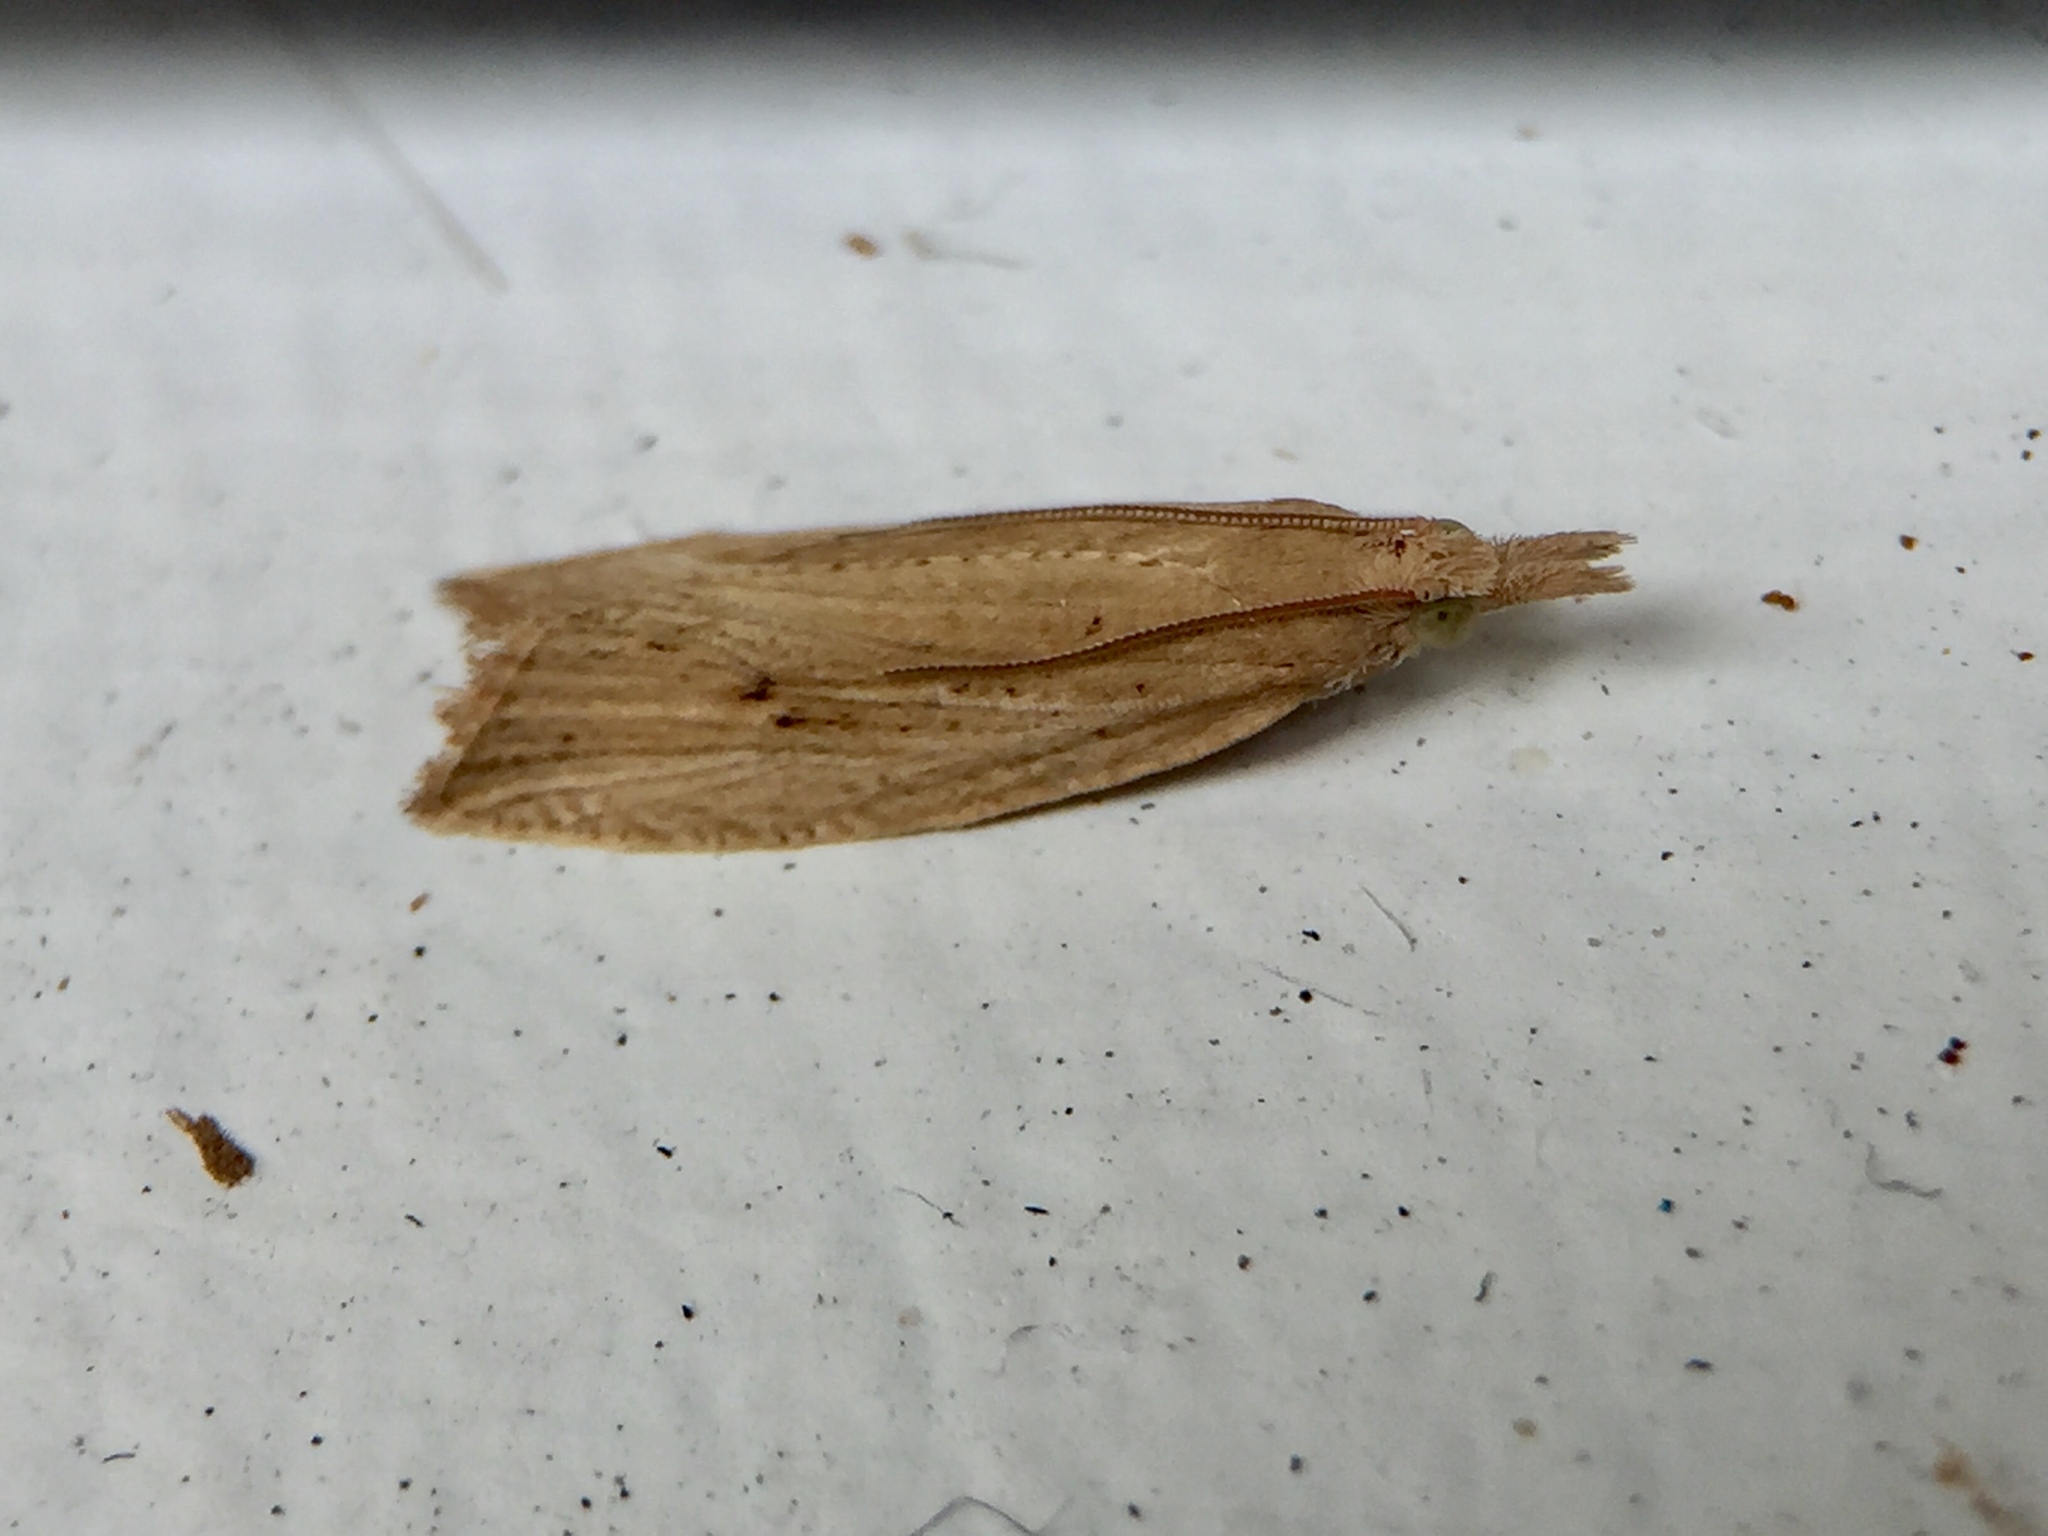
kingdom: Animalia
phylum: Arthropoda
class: Insecta
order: Lepidoptera
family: Tortricidae
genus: Bactra
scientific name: Bactra noteraula
